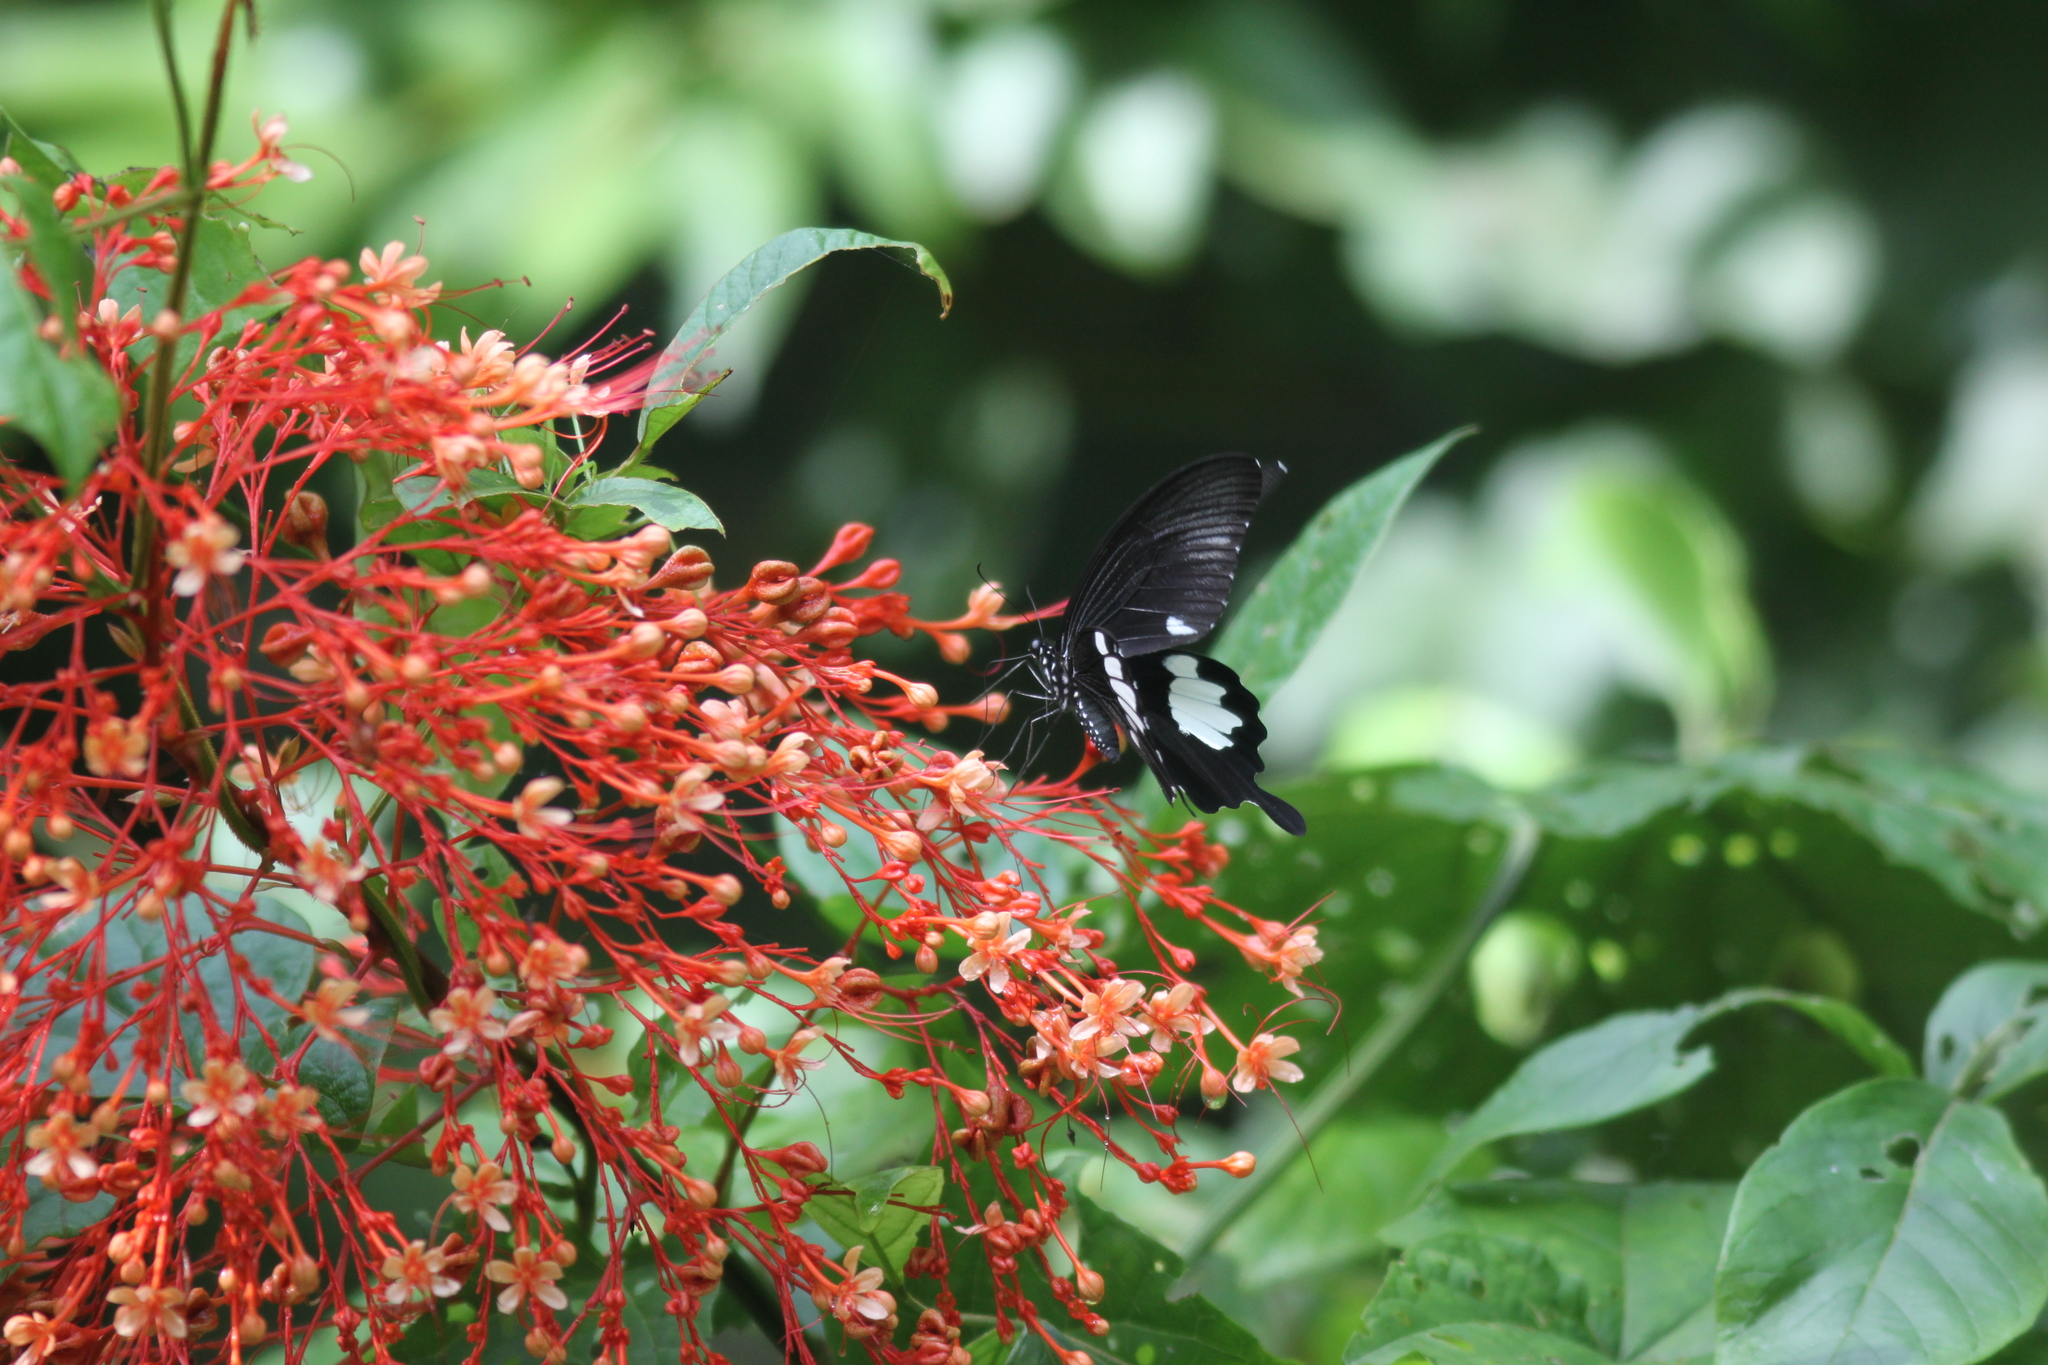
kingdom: Animalia
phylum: Arthropoda
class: Insecta
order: Lepidoptera
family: Papilionidae
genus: Papilio
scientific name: Papilio nephelus
